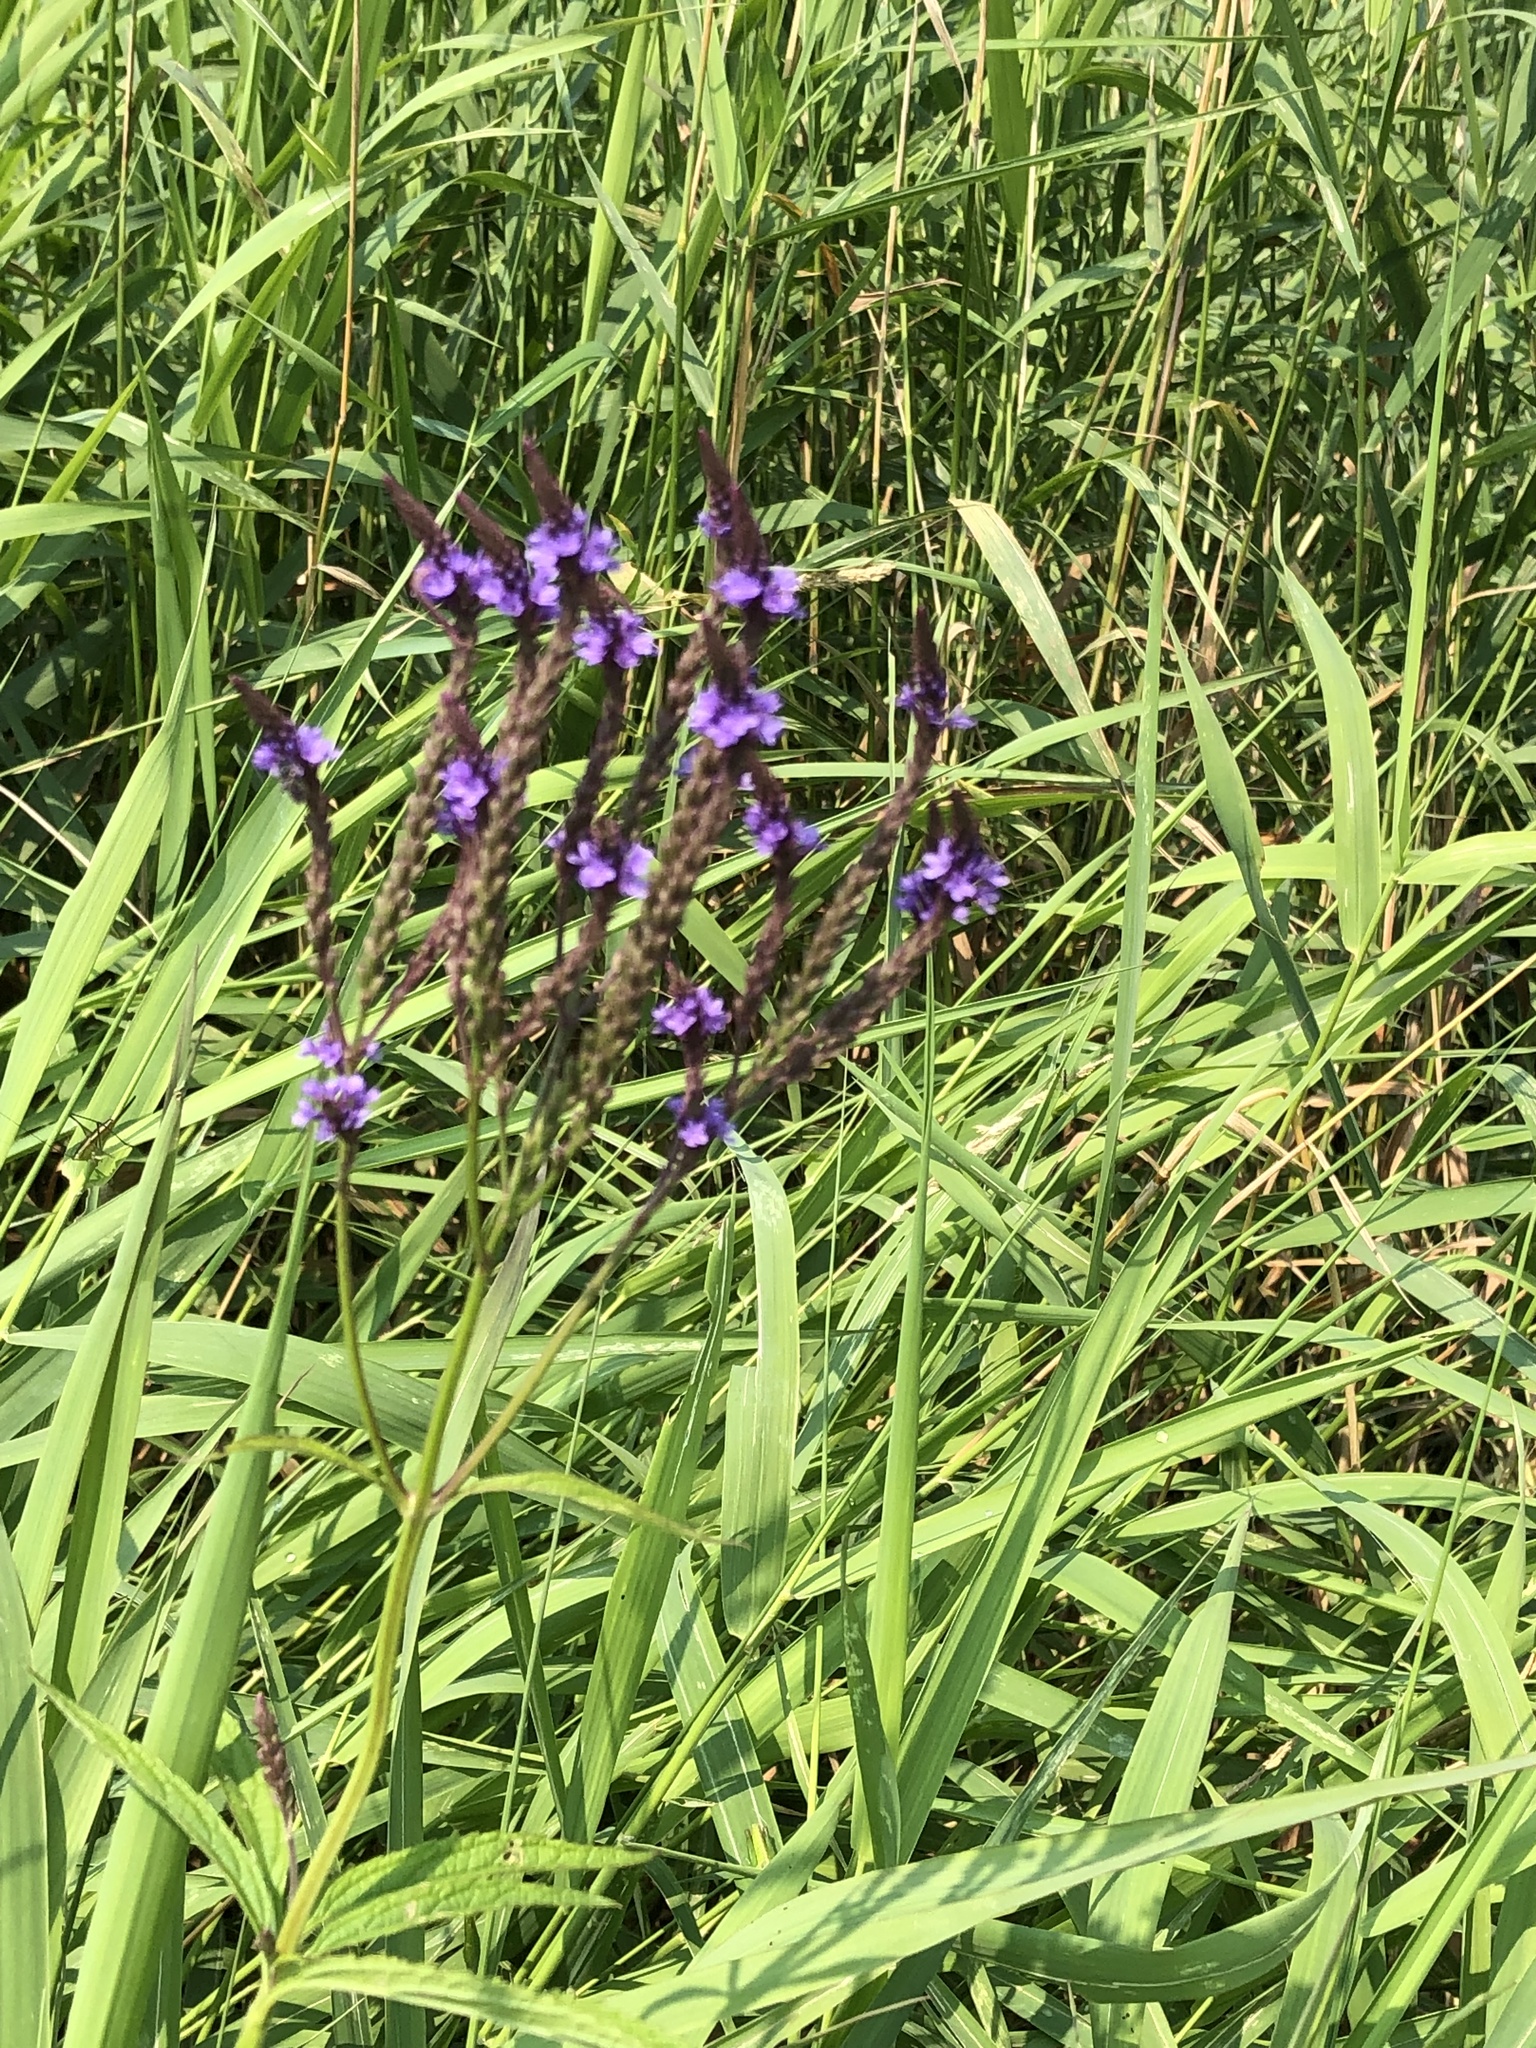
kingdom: Plantae
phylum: Tracheophyta
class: Magnoliopsida
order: Lamiales
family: Verbenaceae
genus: Verbena
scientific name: Verbena hastata
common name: American blue vervain
